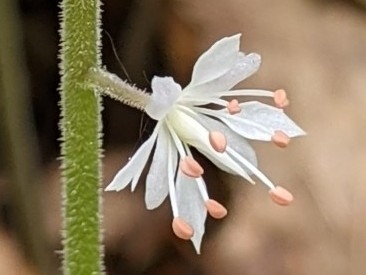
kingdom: Plantae
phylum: Tracheophyta
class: Magnoliopsida
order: Saxifragales
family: Saxifragaceae
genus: Tiarella
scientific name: Tiarella stolonifera
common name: Stoloniferous foamflower
